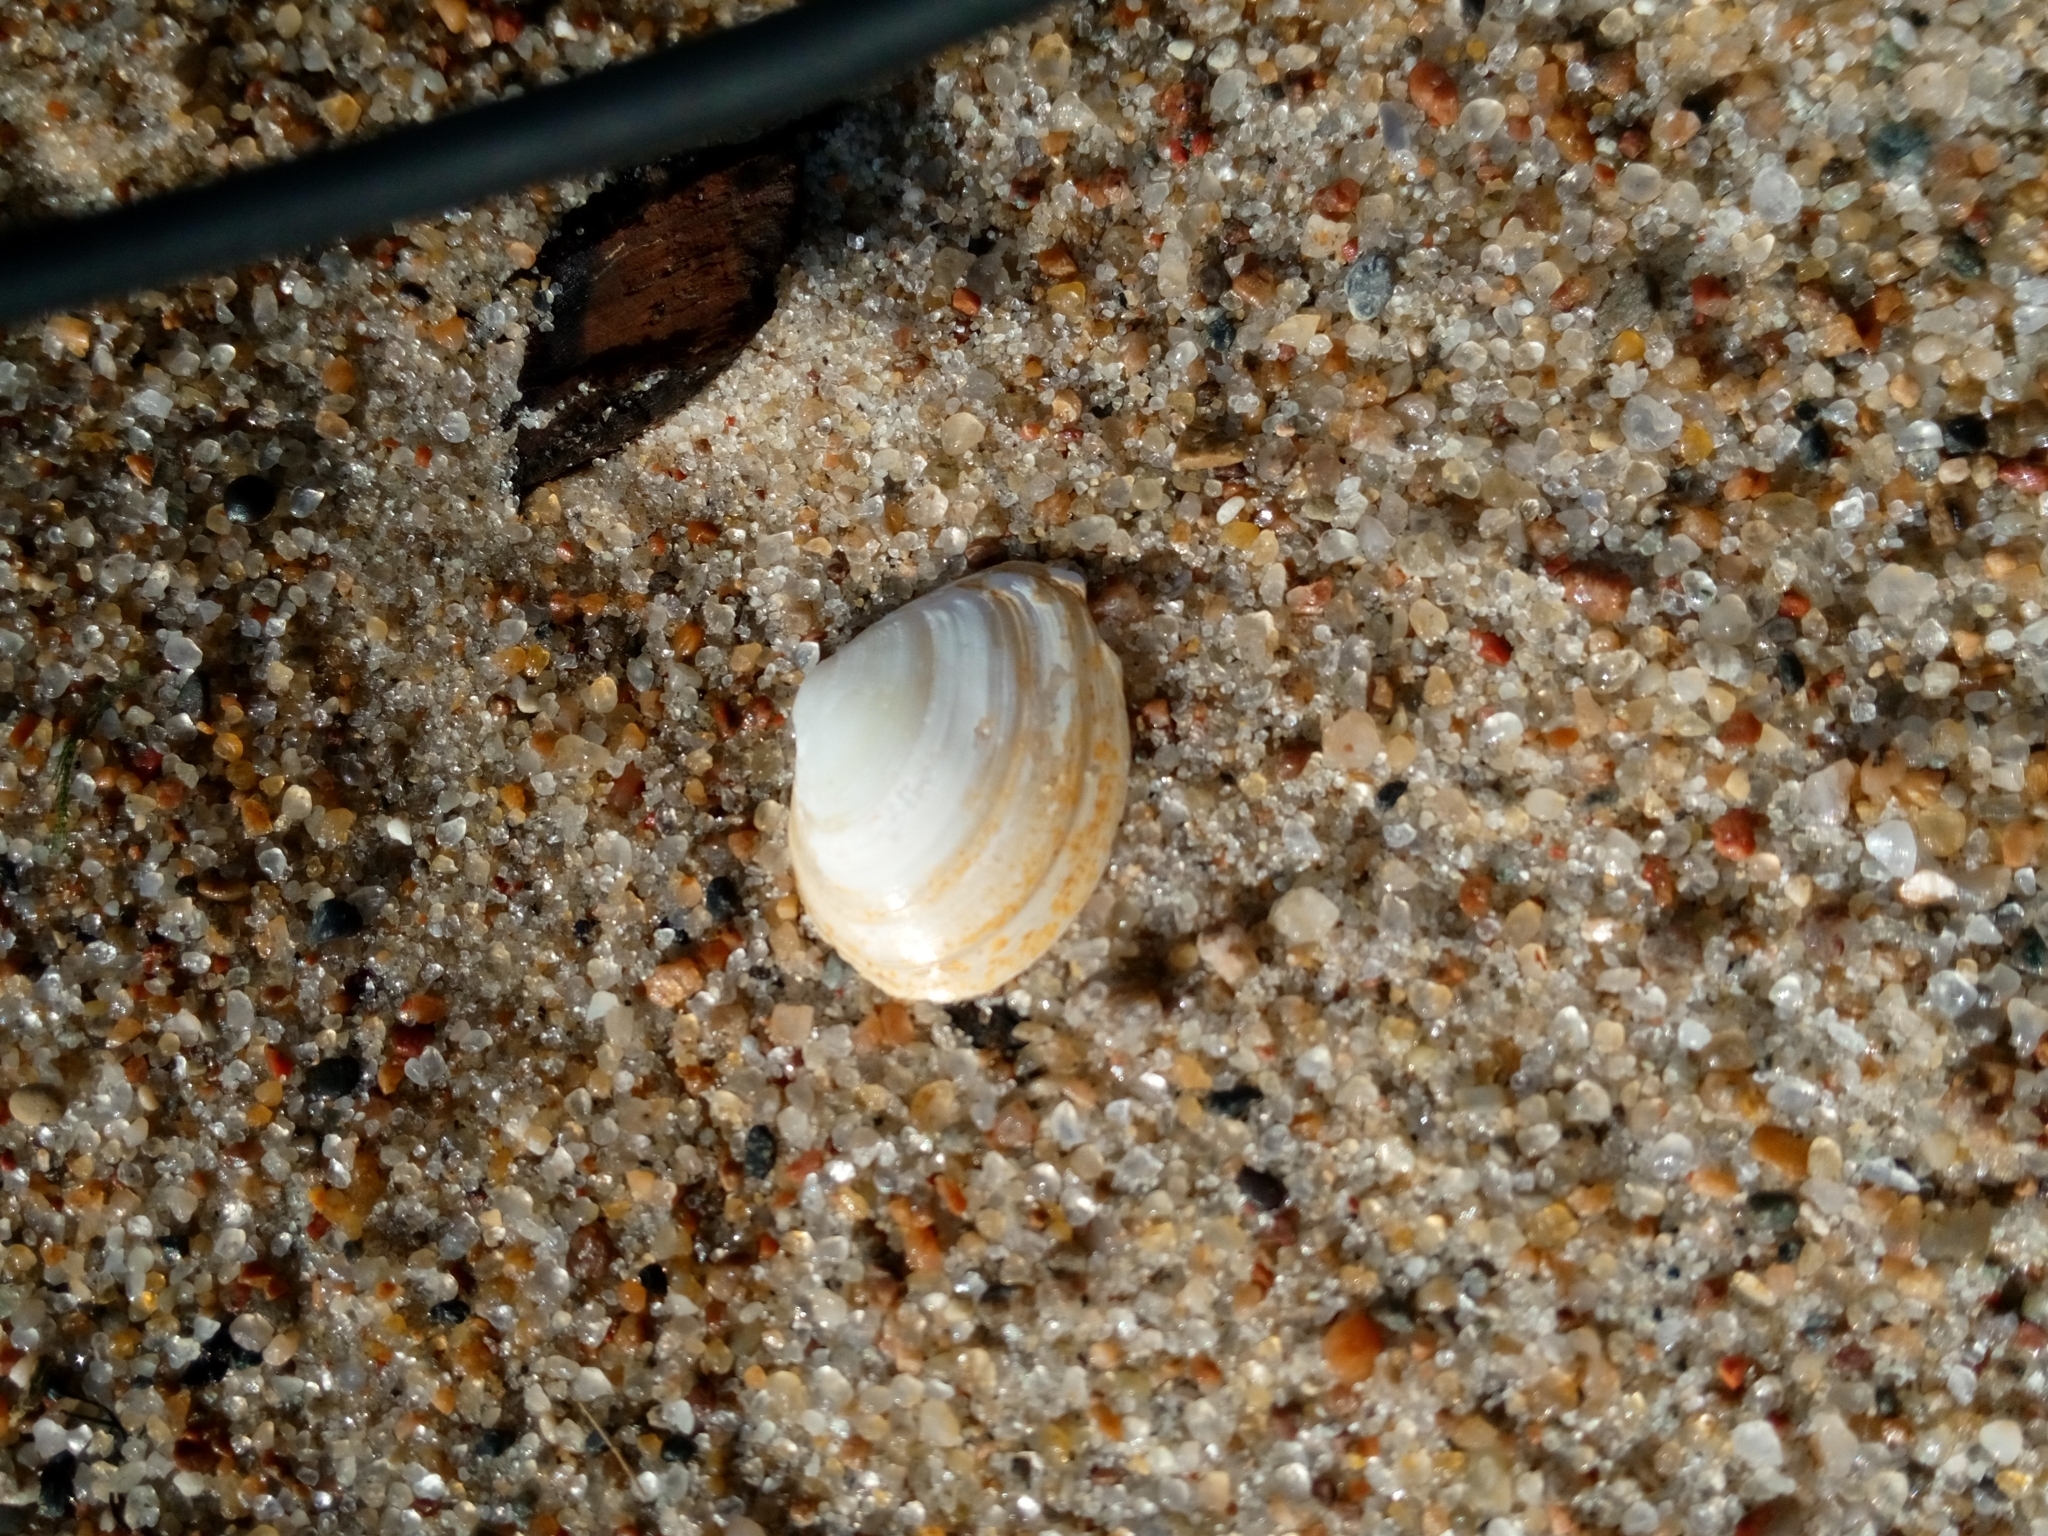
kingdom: Animalia
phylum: Mollusca
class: Bivalvia
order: Cardiida
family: Tellinidae
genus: Macoma
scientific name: Macoma balthica
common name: Baltic tellin
